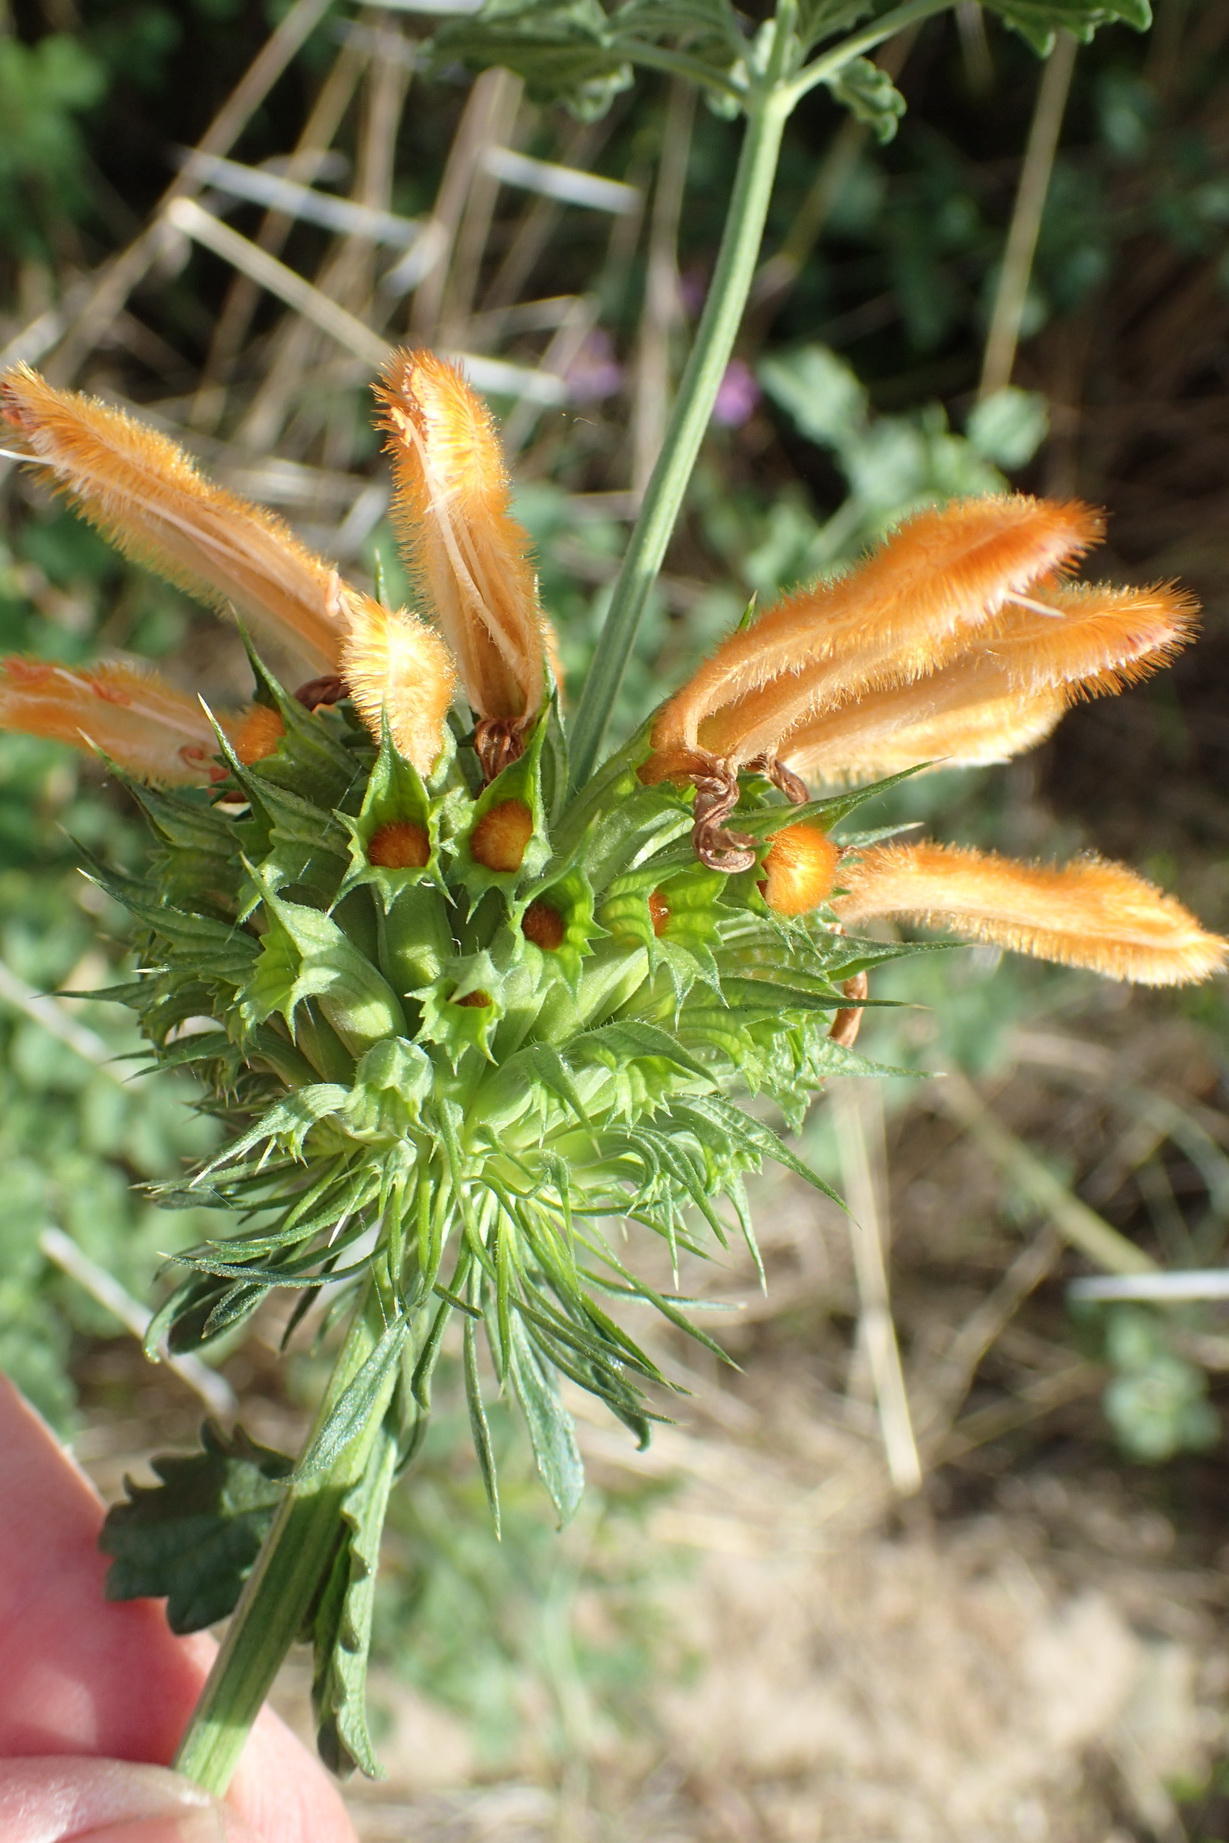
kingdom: Plantae
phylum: Tracheophyta
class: Magnoliopsida
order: Lamiales
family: Lamiaceae
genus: Leonotis
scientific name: Leonotis ocymifolia
